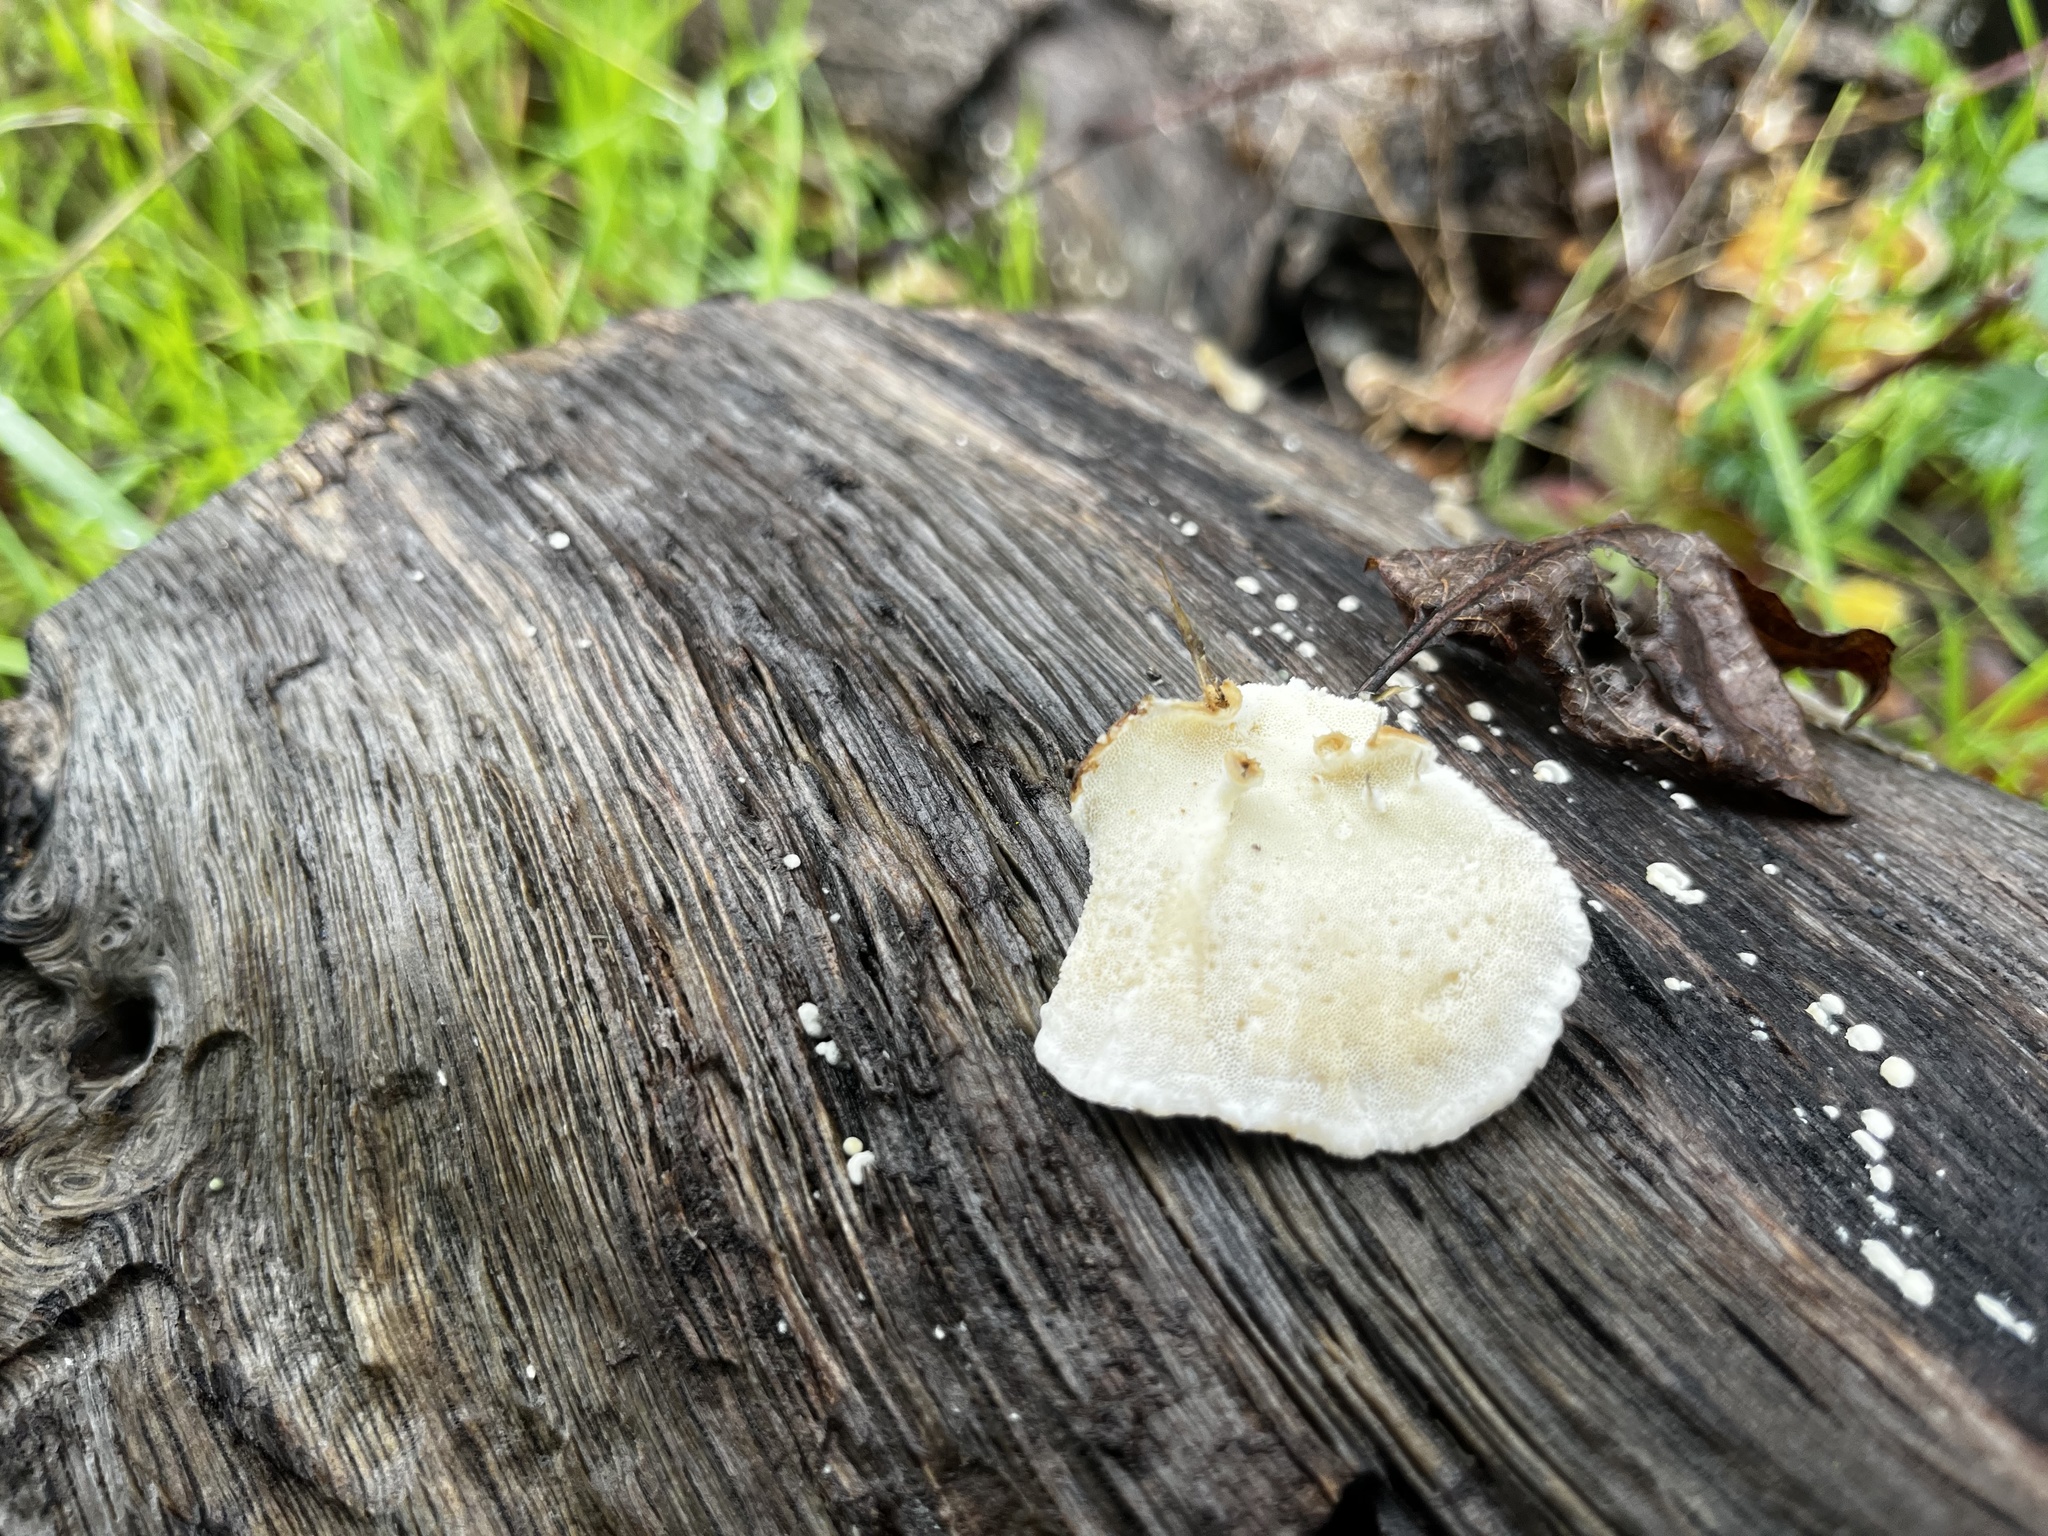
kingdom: Fungi
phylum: Basidiomycota
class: Agaricomycetes
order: Polyporales
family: Polyporaceae
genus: Trametes
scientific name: Trametes versicolor
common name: Turkeytail
